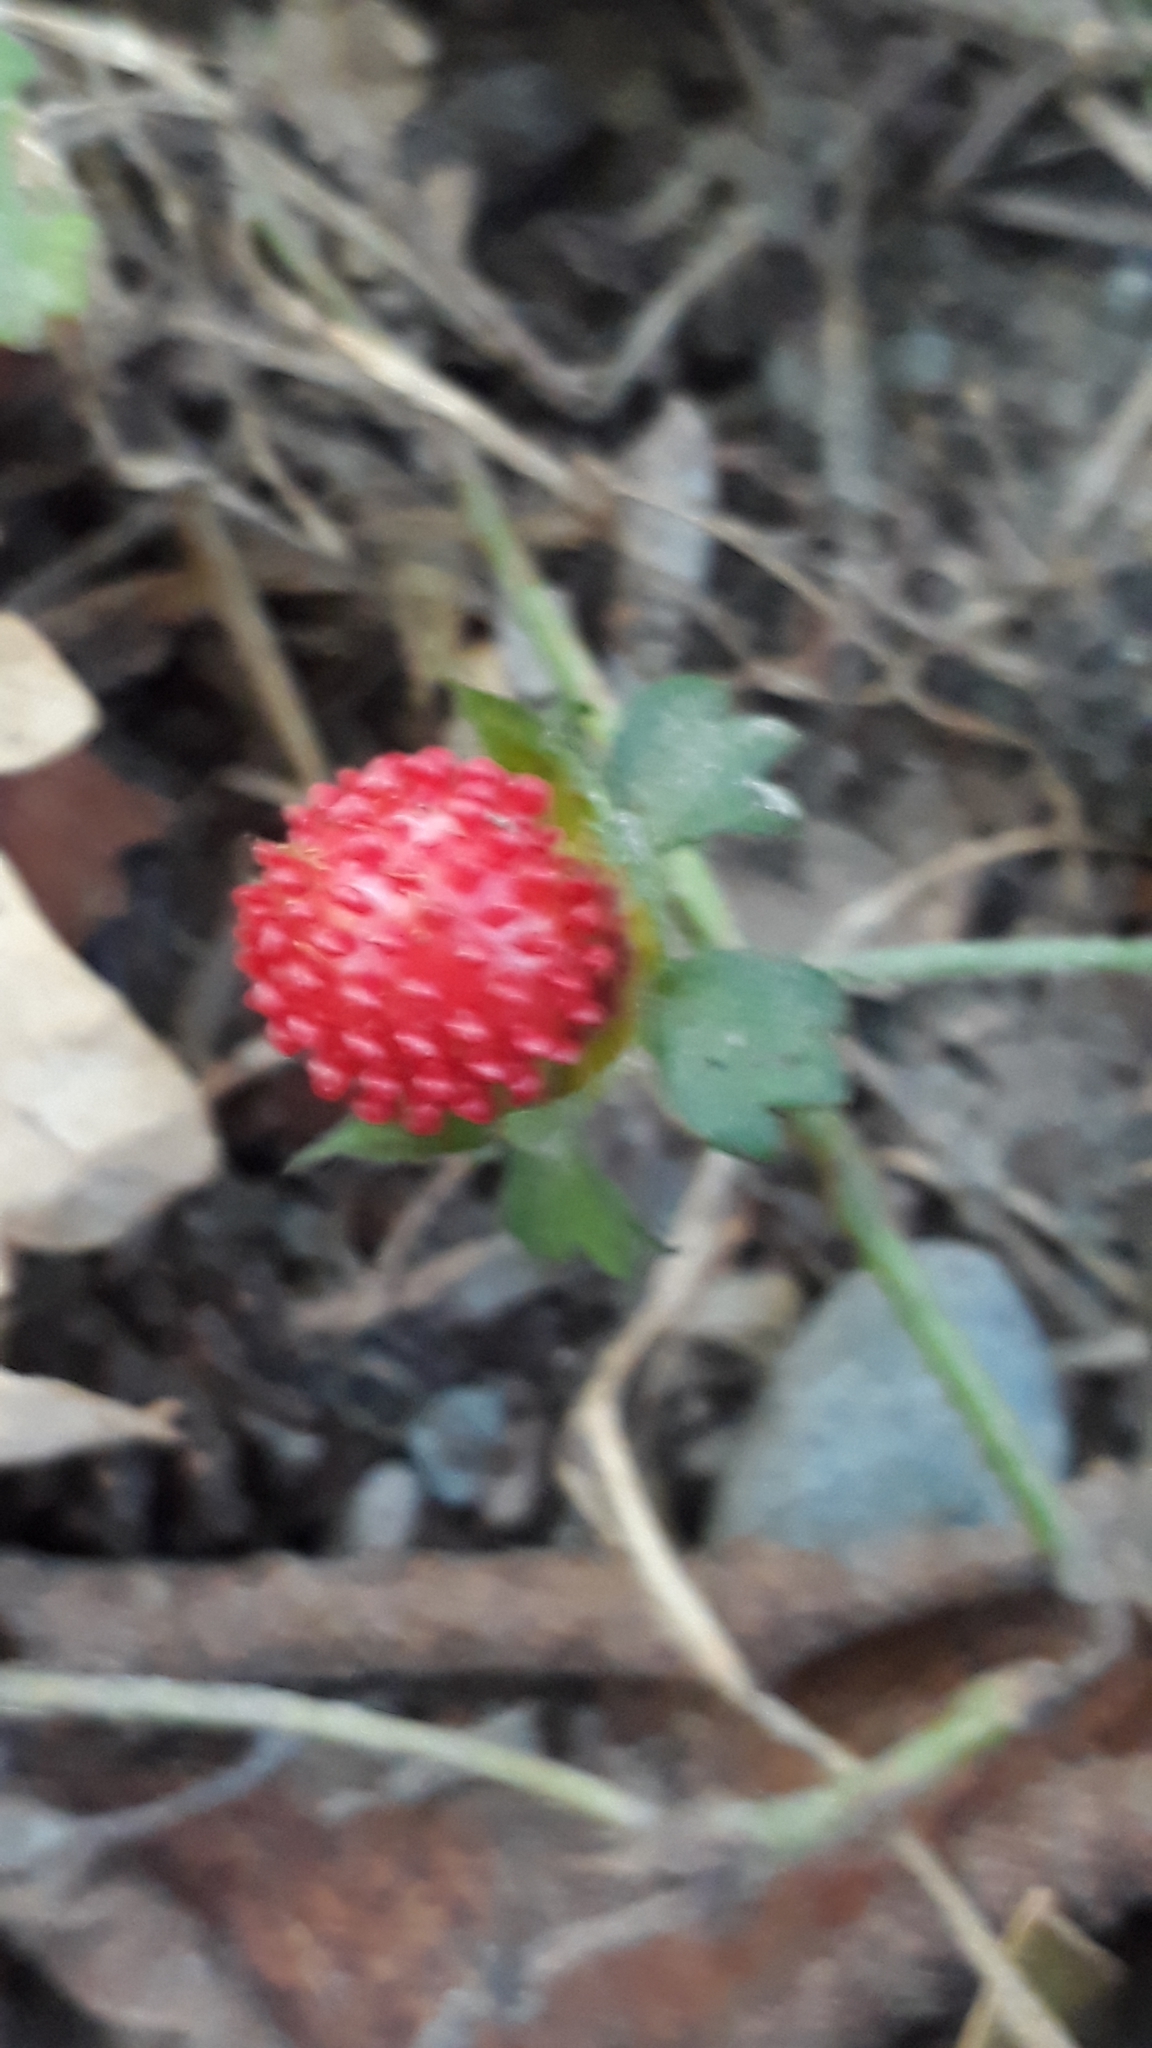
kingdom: Plantae
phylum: Tracheophyta
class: Magnoliopsida
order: Rosales
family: Rosaceae
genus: Potentilla
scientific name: Potentilla indica
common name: Yellow-flowered strawberry
